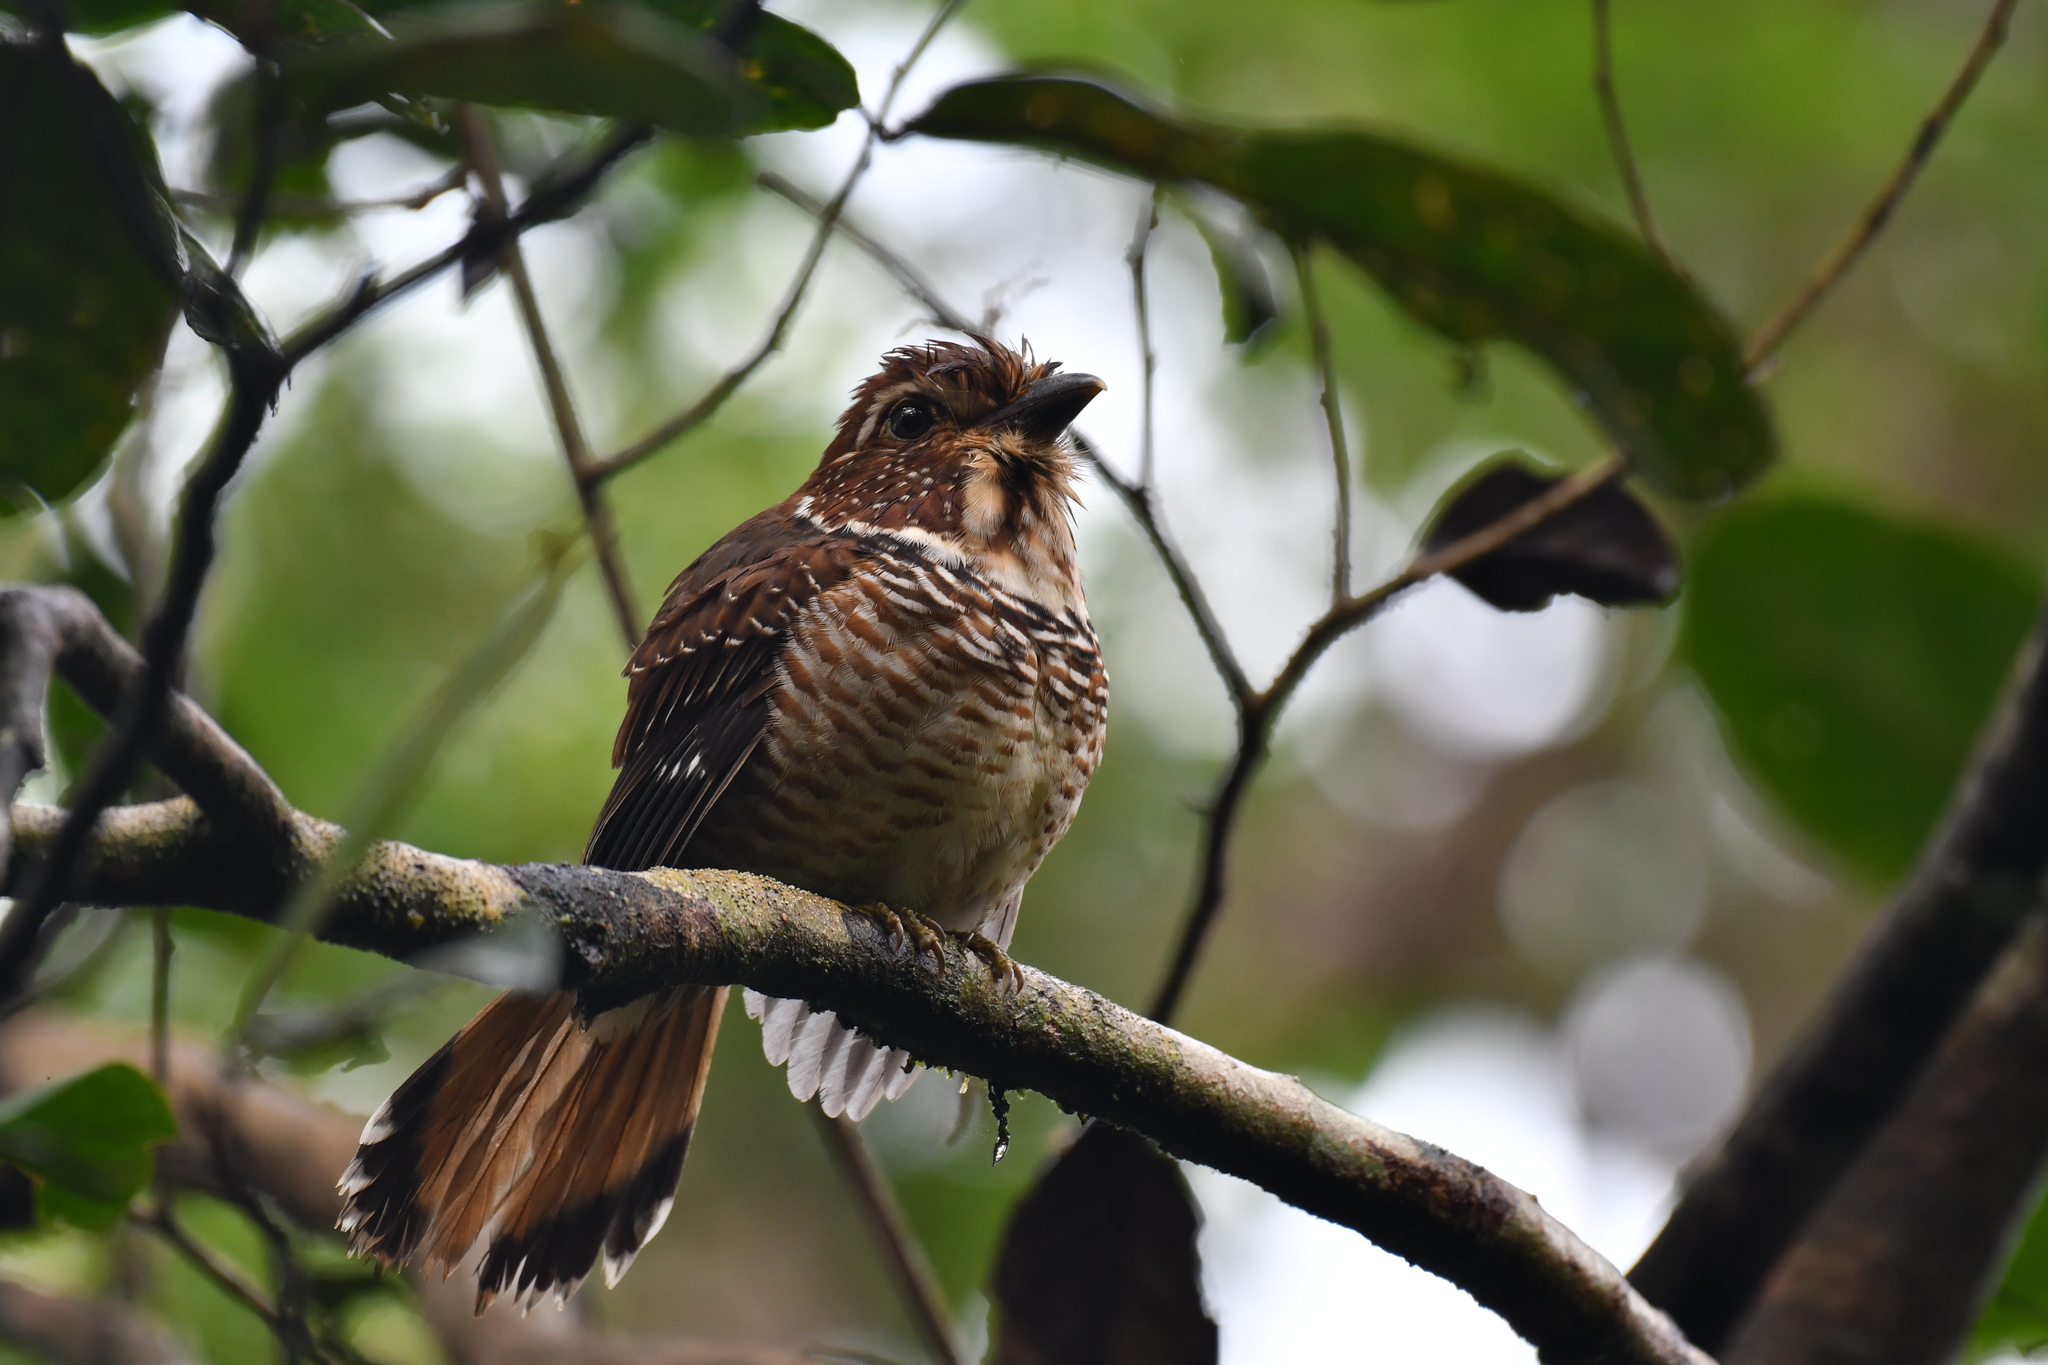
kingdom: Animalia
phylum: Chordata
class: Aves
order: Coraciiformes
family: Brachypteraciidae
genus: Brachypteracias
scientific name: Brachypteracias leptosomus
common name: Short-legged ground-roller
